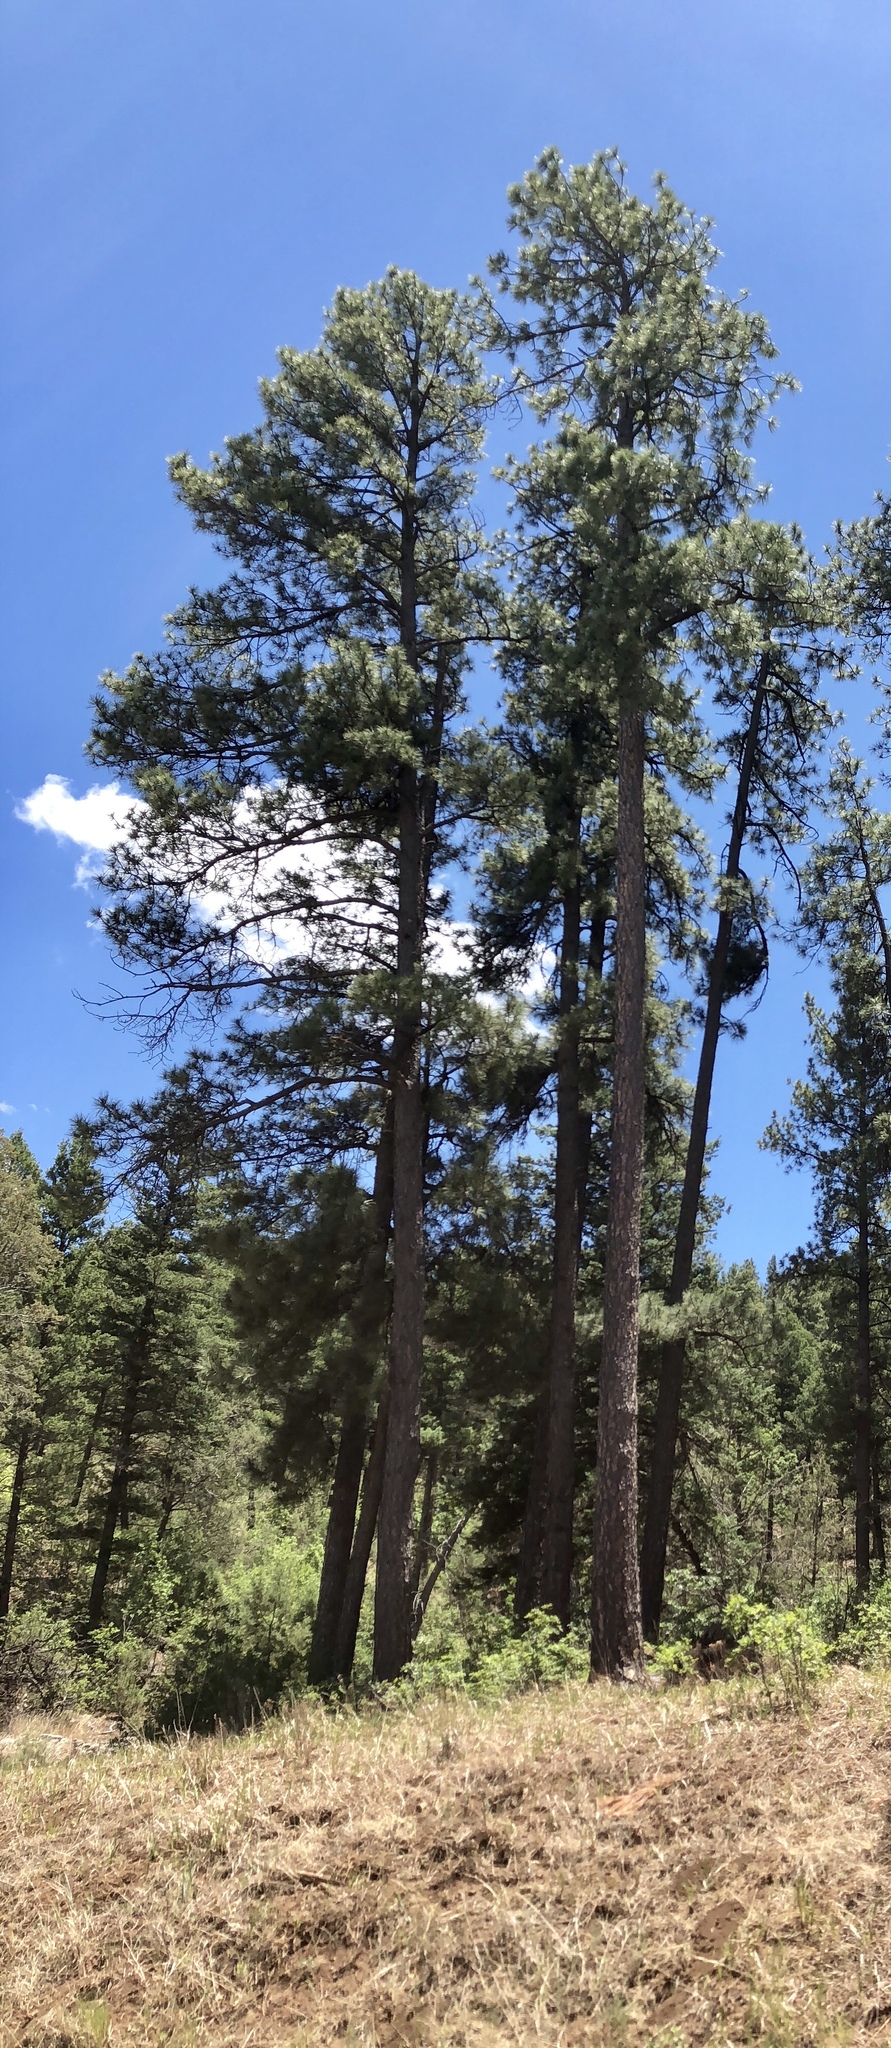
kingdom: Plantae
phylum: Tracheophyta
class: Pinopsida
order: Pinales
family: Pinaceae
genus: Pinus
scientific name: Pinus ponderosa
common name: Western yellow-pine
